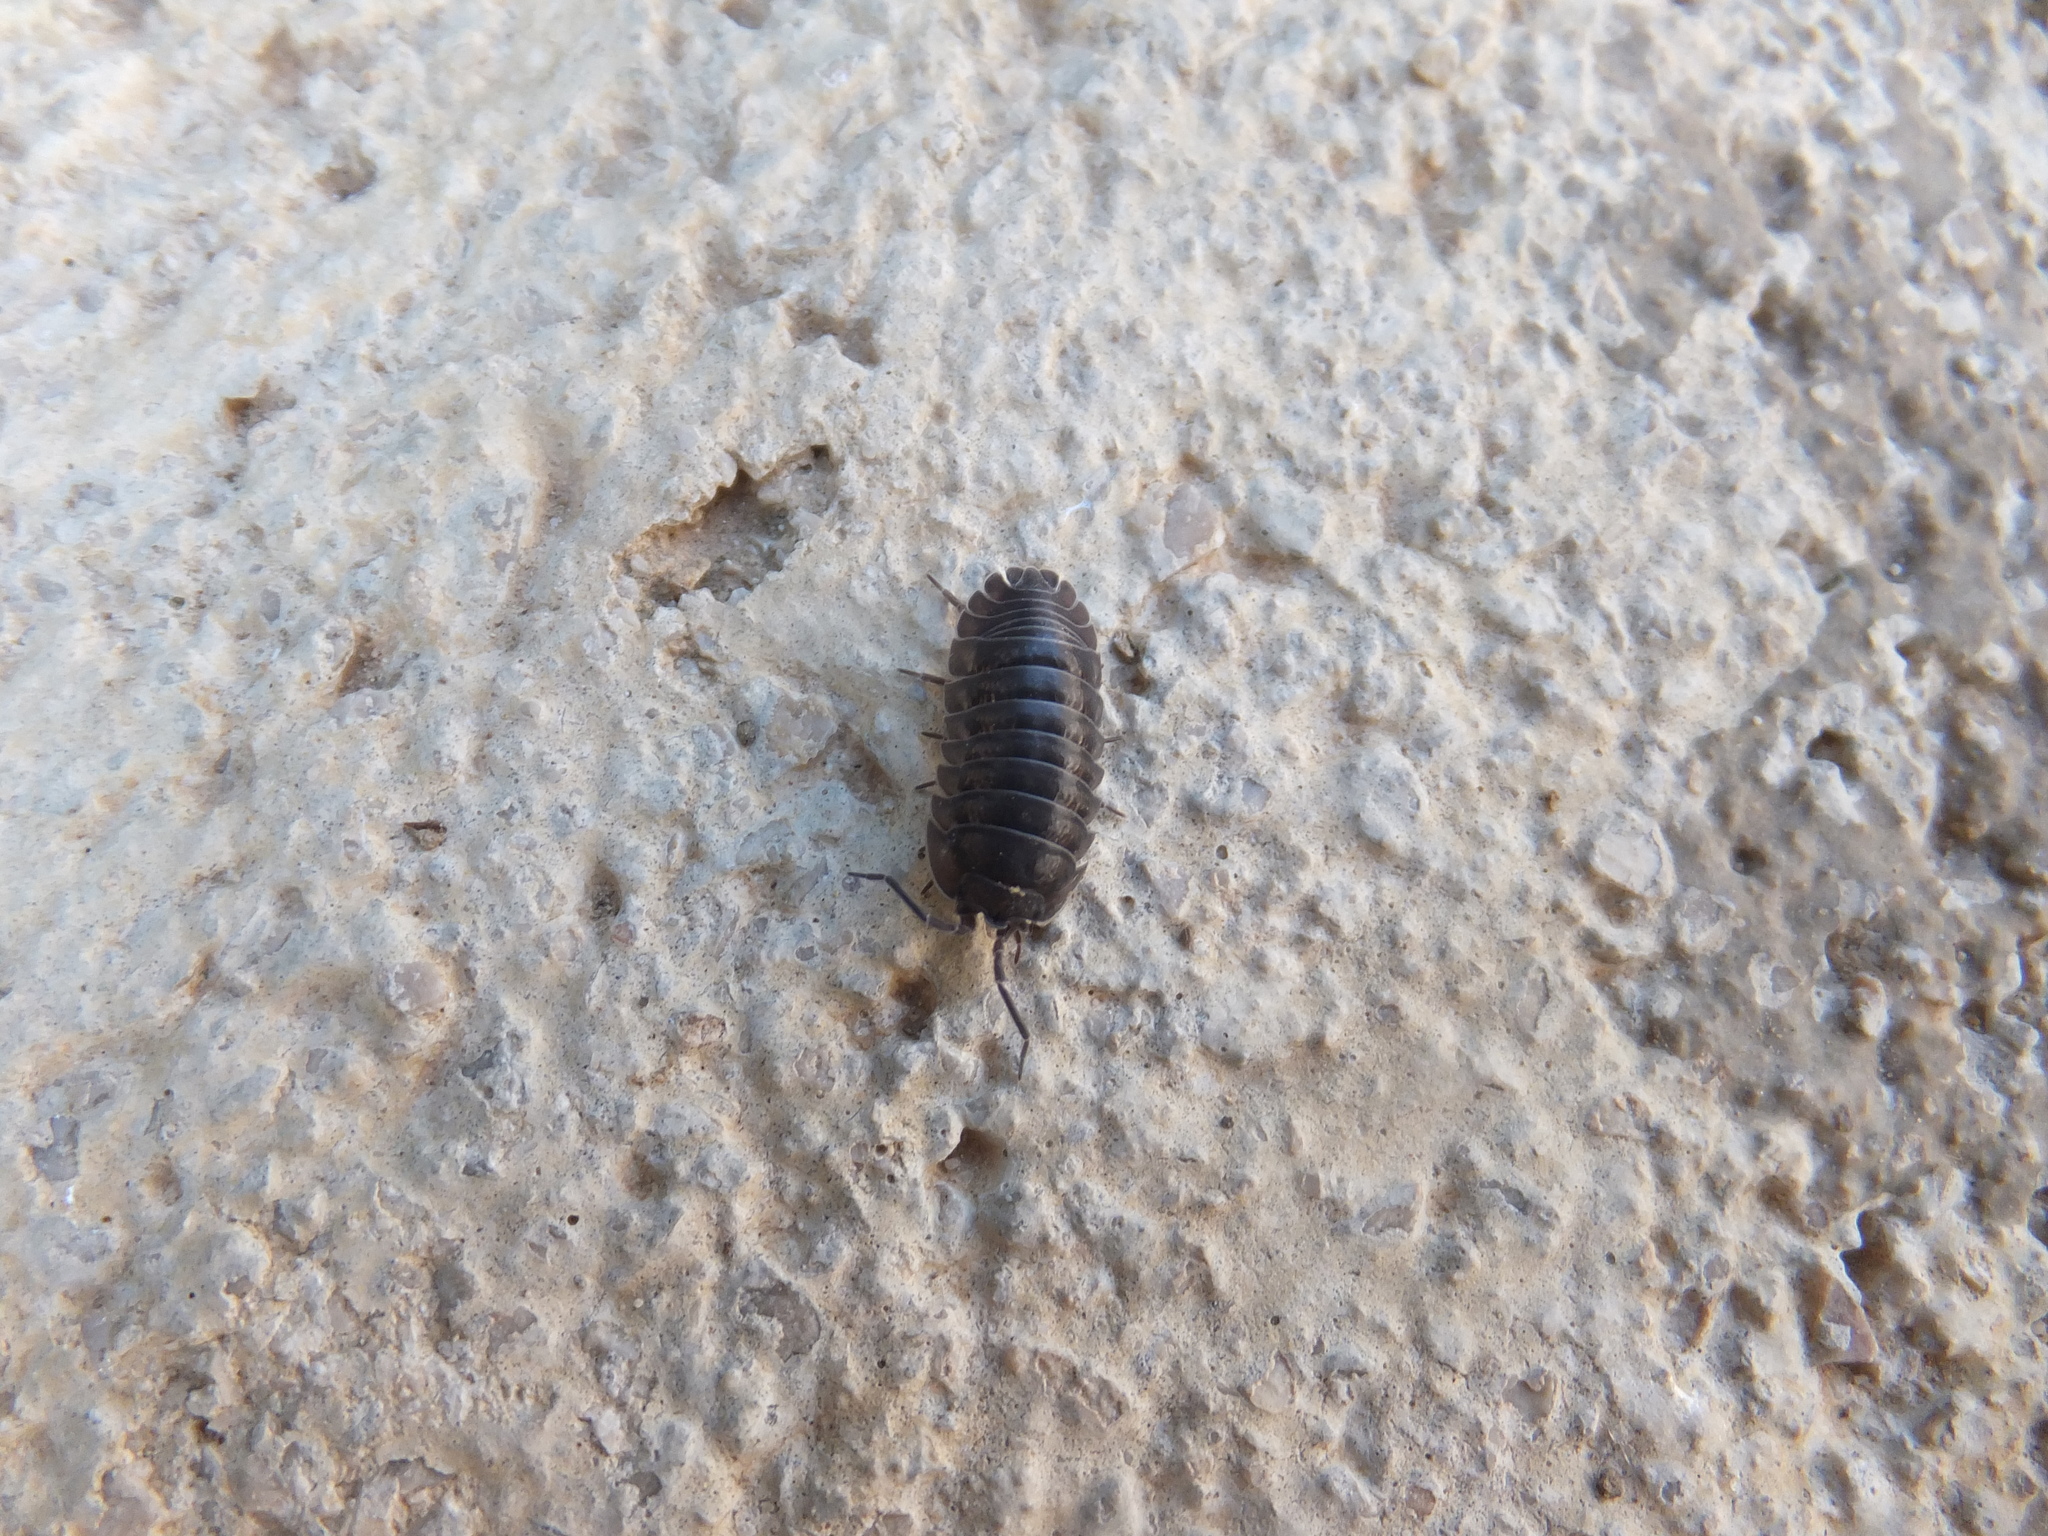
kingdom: Animalia
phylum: Arthropoda
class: Malacostraca
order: Isopoda
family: Armadillidiidae
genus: Armadillidium
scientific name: Armadillidium nasatum
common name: Isopod
